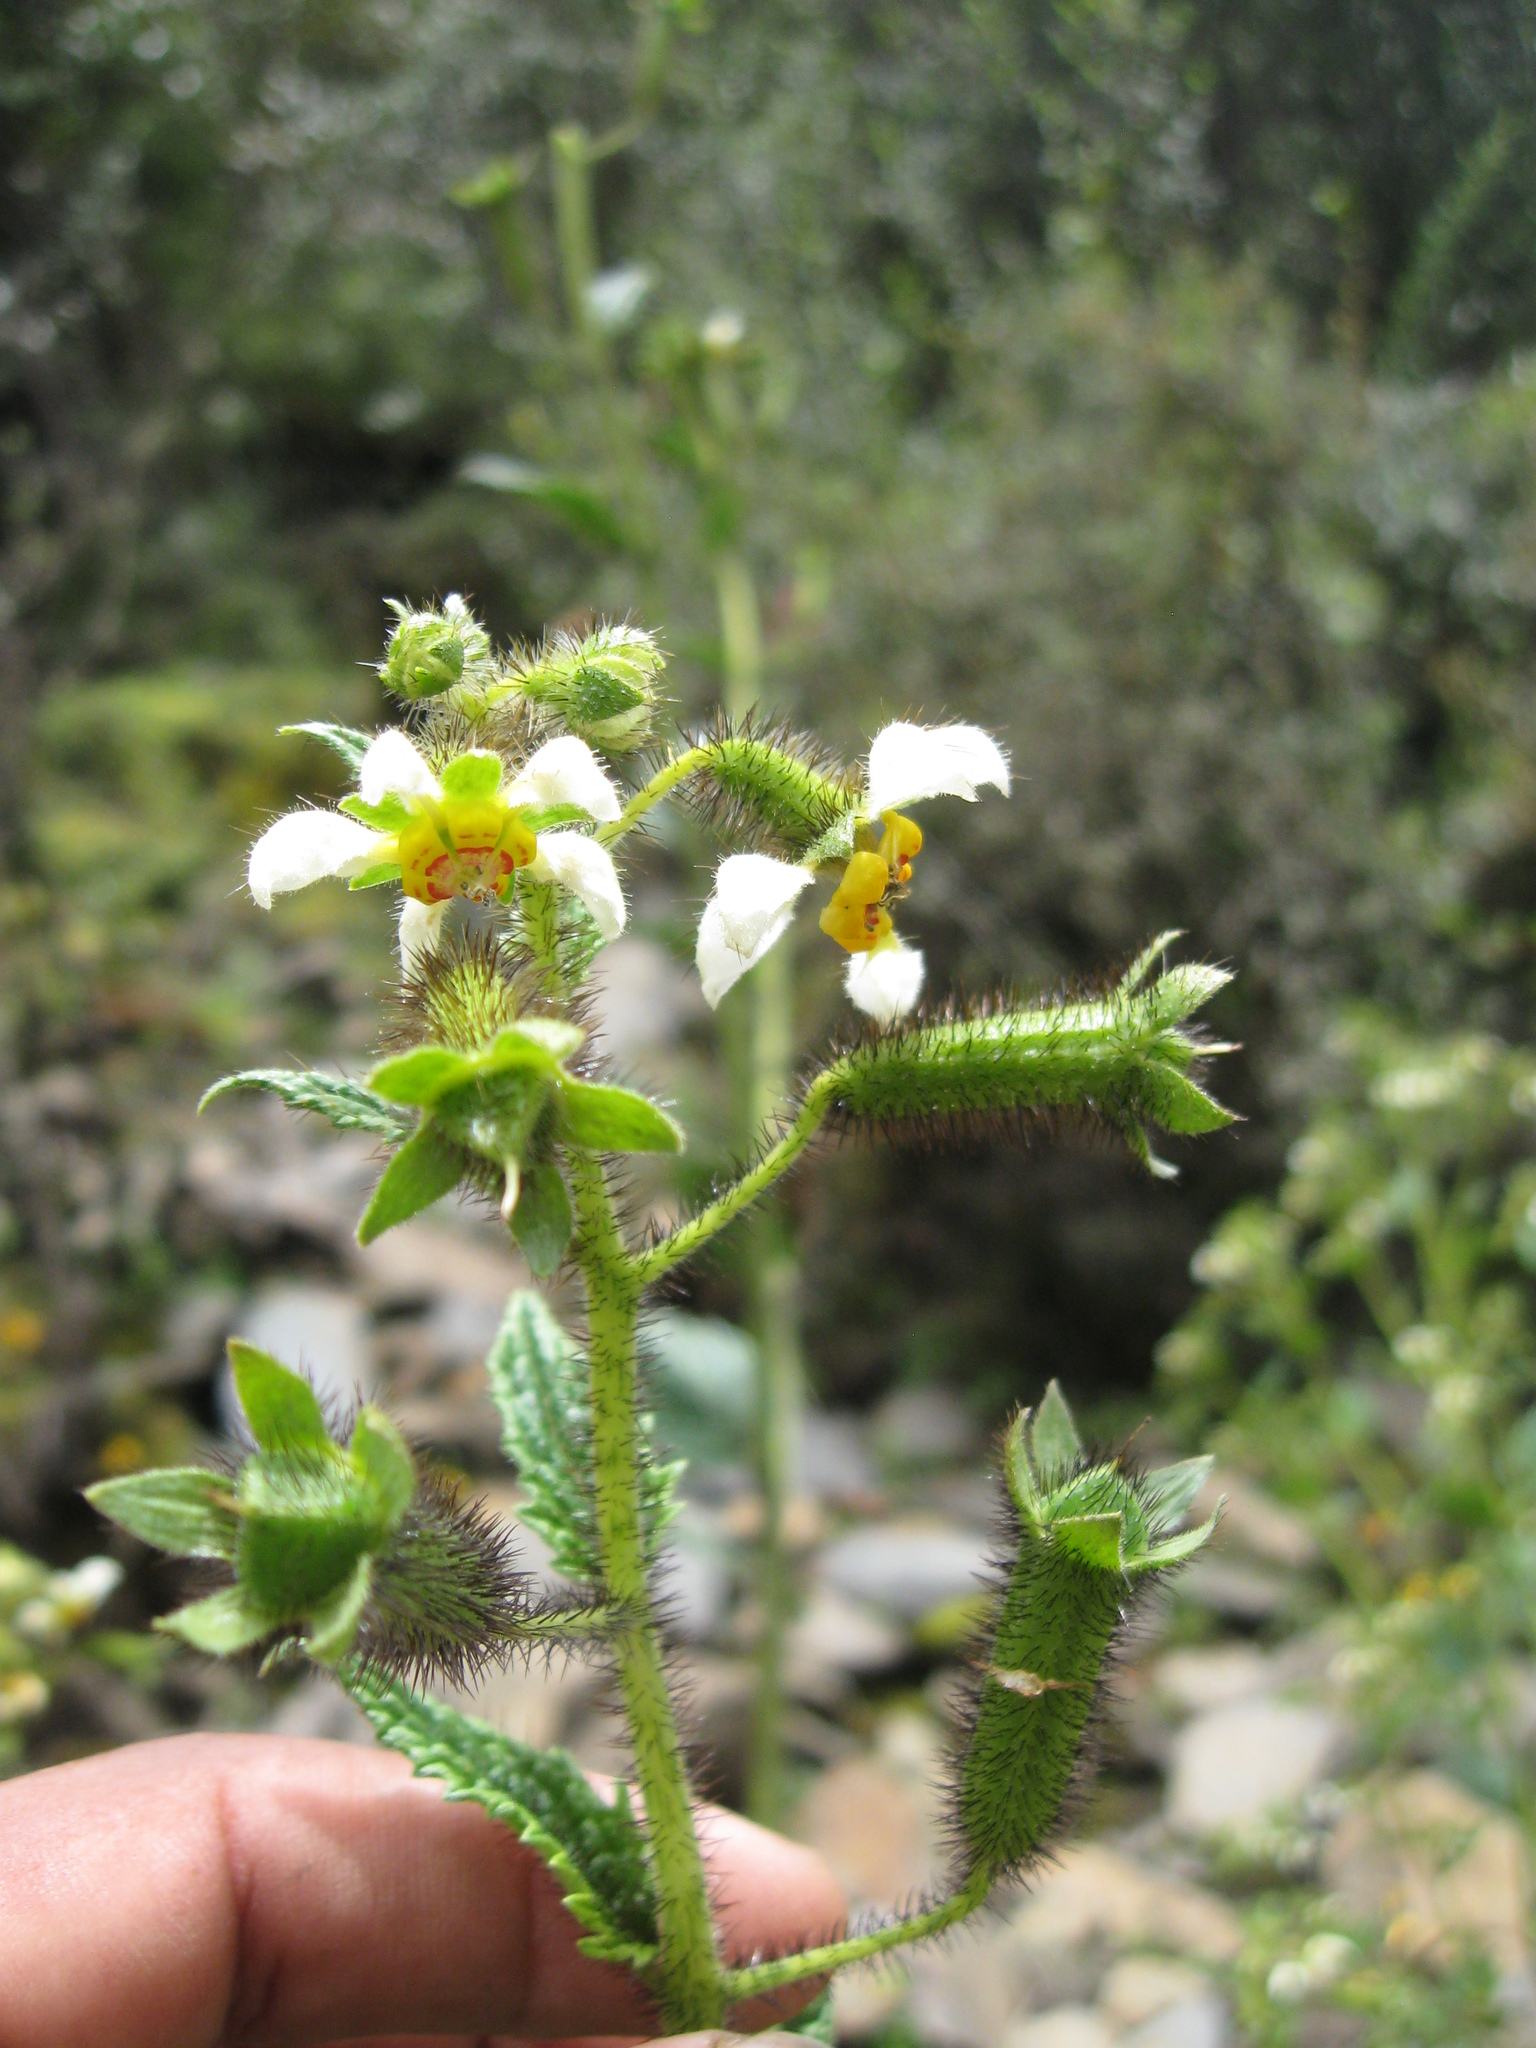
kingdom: Plantae
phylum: Tracheophyta
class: Magnoliopsida
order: Cornales
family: Loasaceae
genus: Nasa
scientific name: Nasa ferruginea
